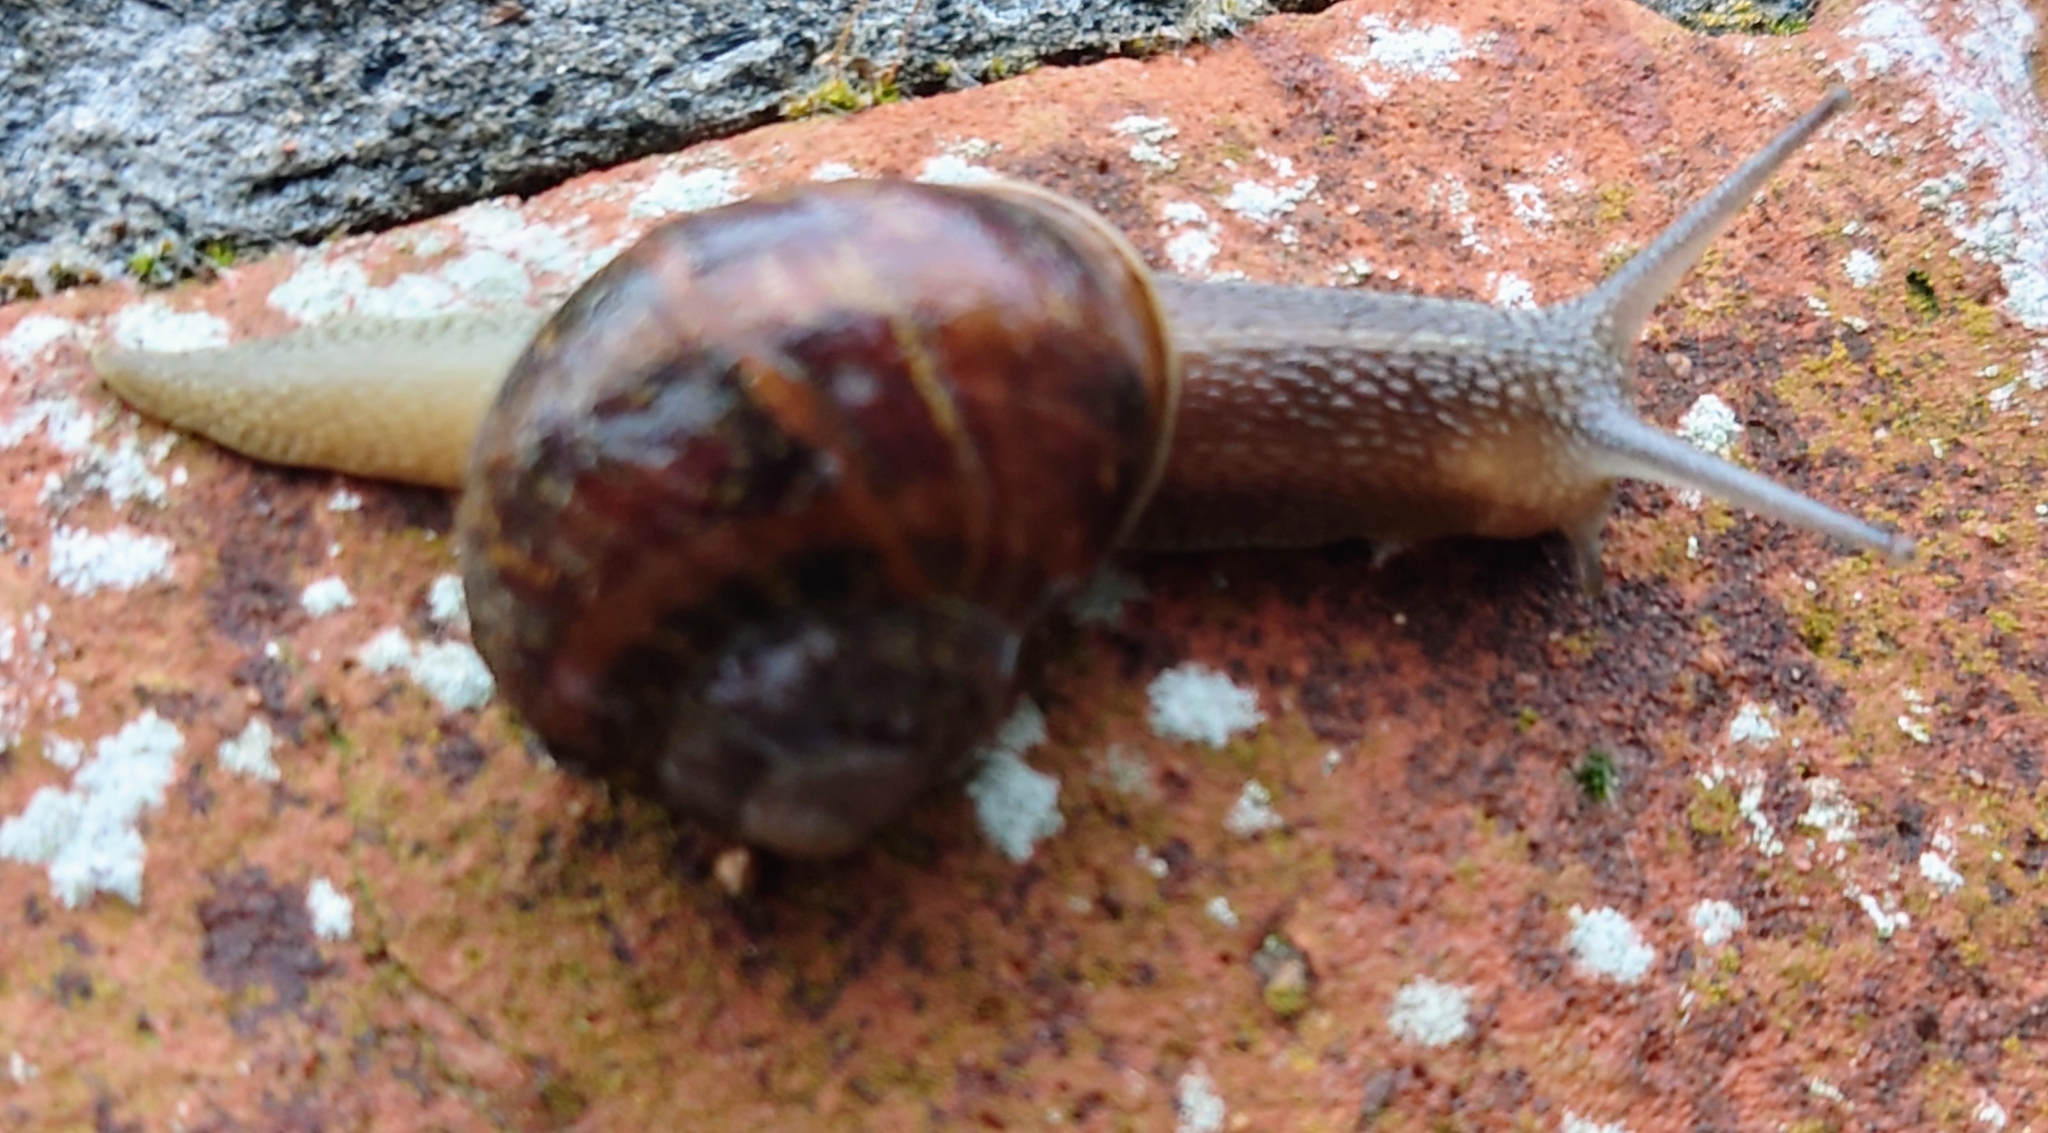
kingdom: Animalia
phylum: Mollusca
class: Gastropoda
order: Stylommatophora
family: Helicidae
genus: Cornu
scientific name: Cornu aspersum
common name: Brown garden snail
